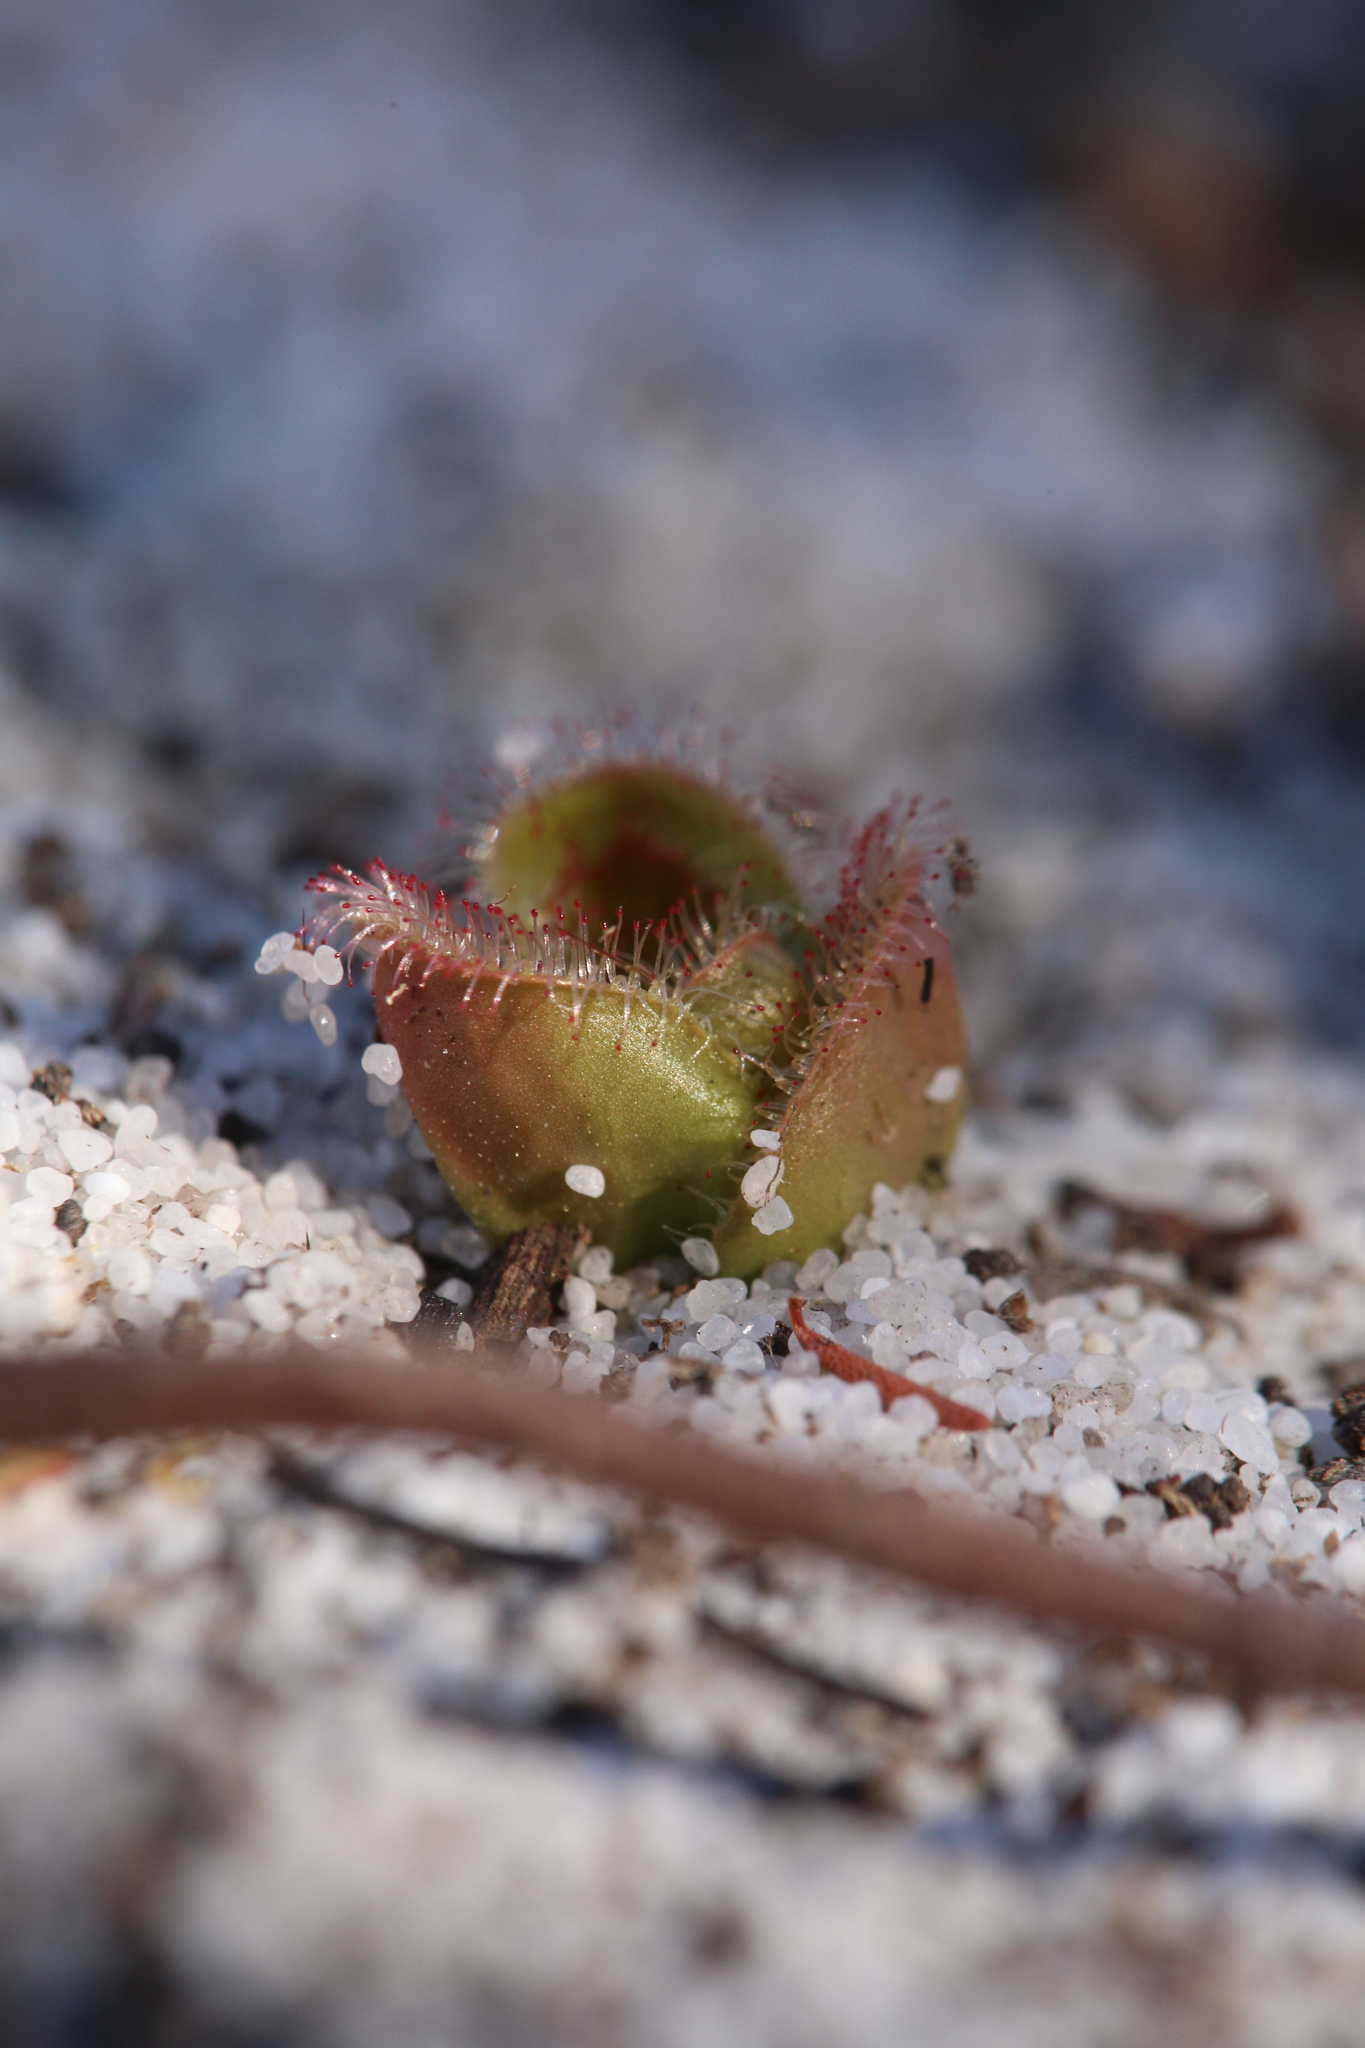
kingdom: Plantae
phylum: Tracheophyta
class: Magnoliopsida
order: Caryophyllales
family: Droseraceae
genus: Drosera
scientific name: Drosera erythrorhiza
